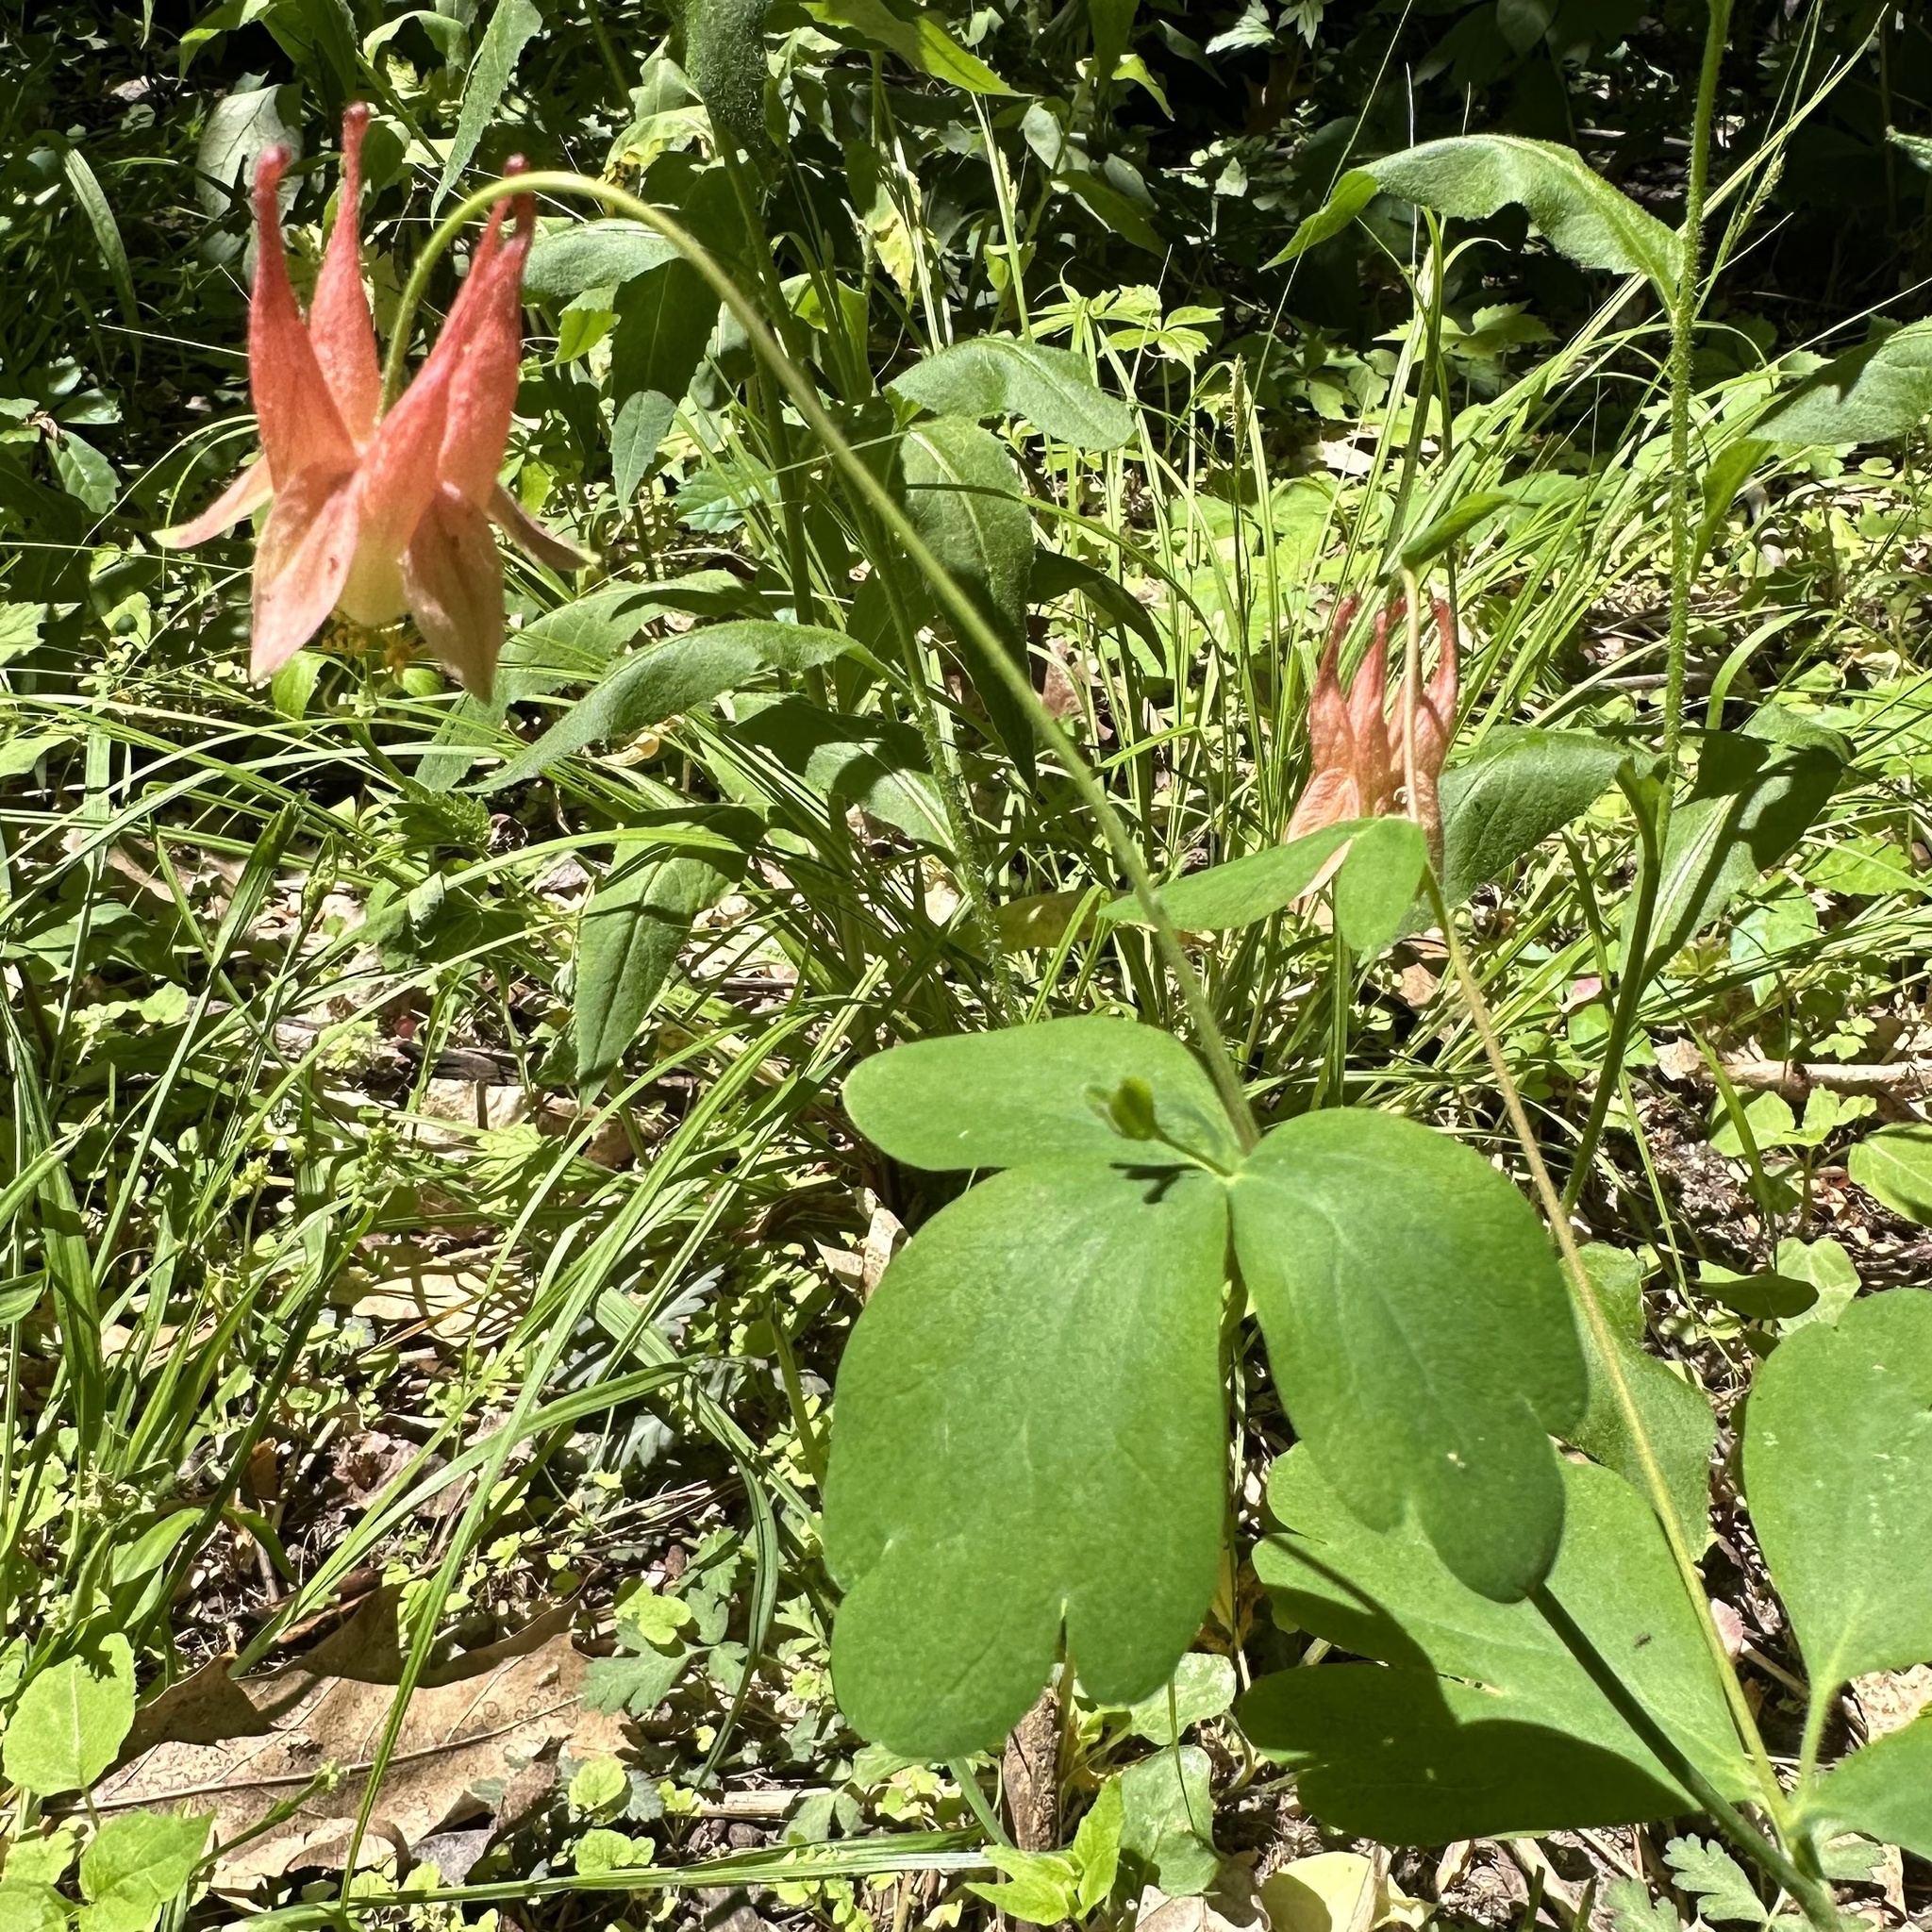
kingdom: Plantae
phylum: Tracheophyta
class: Magnoliopsida
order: Ranunculales
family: Ranunculaceae
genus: Aquilegia
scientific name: Aquilegia canadensis
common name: American columbine
